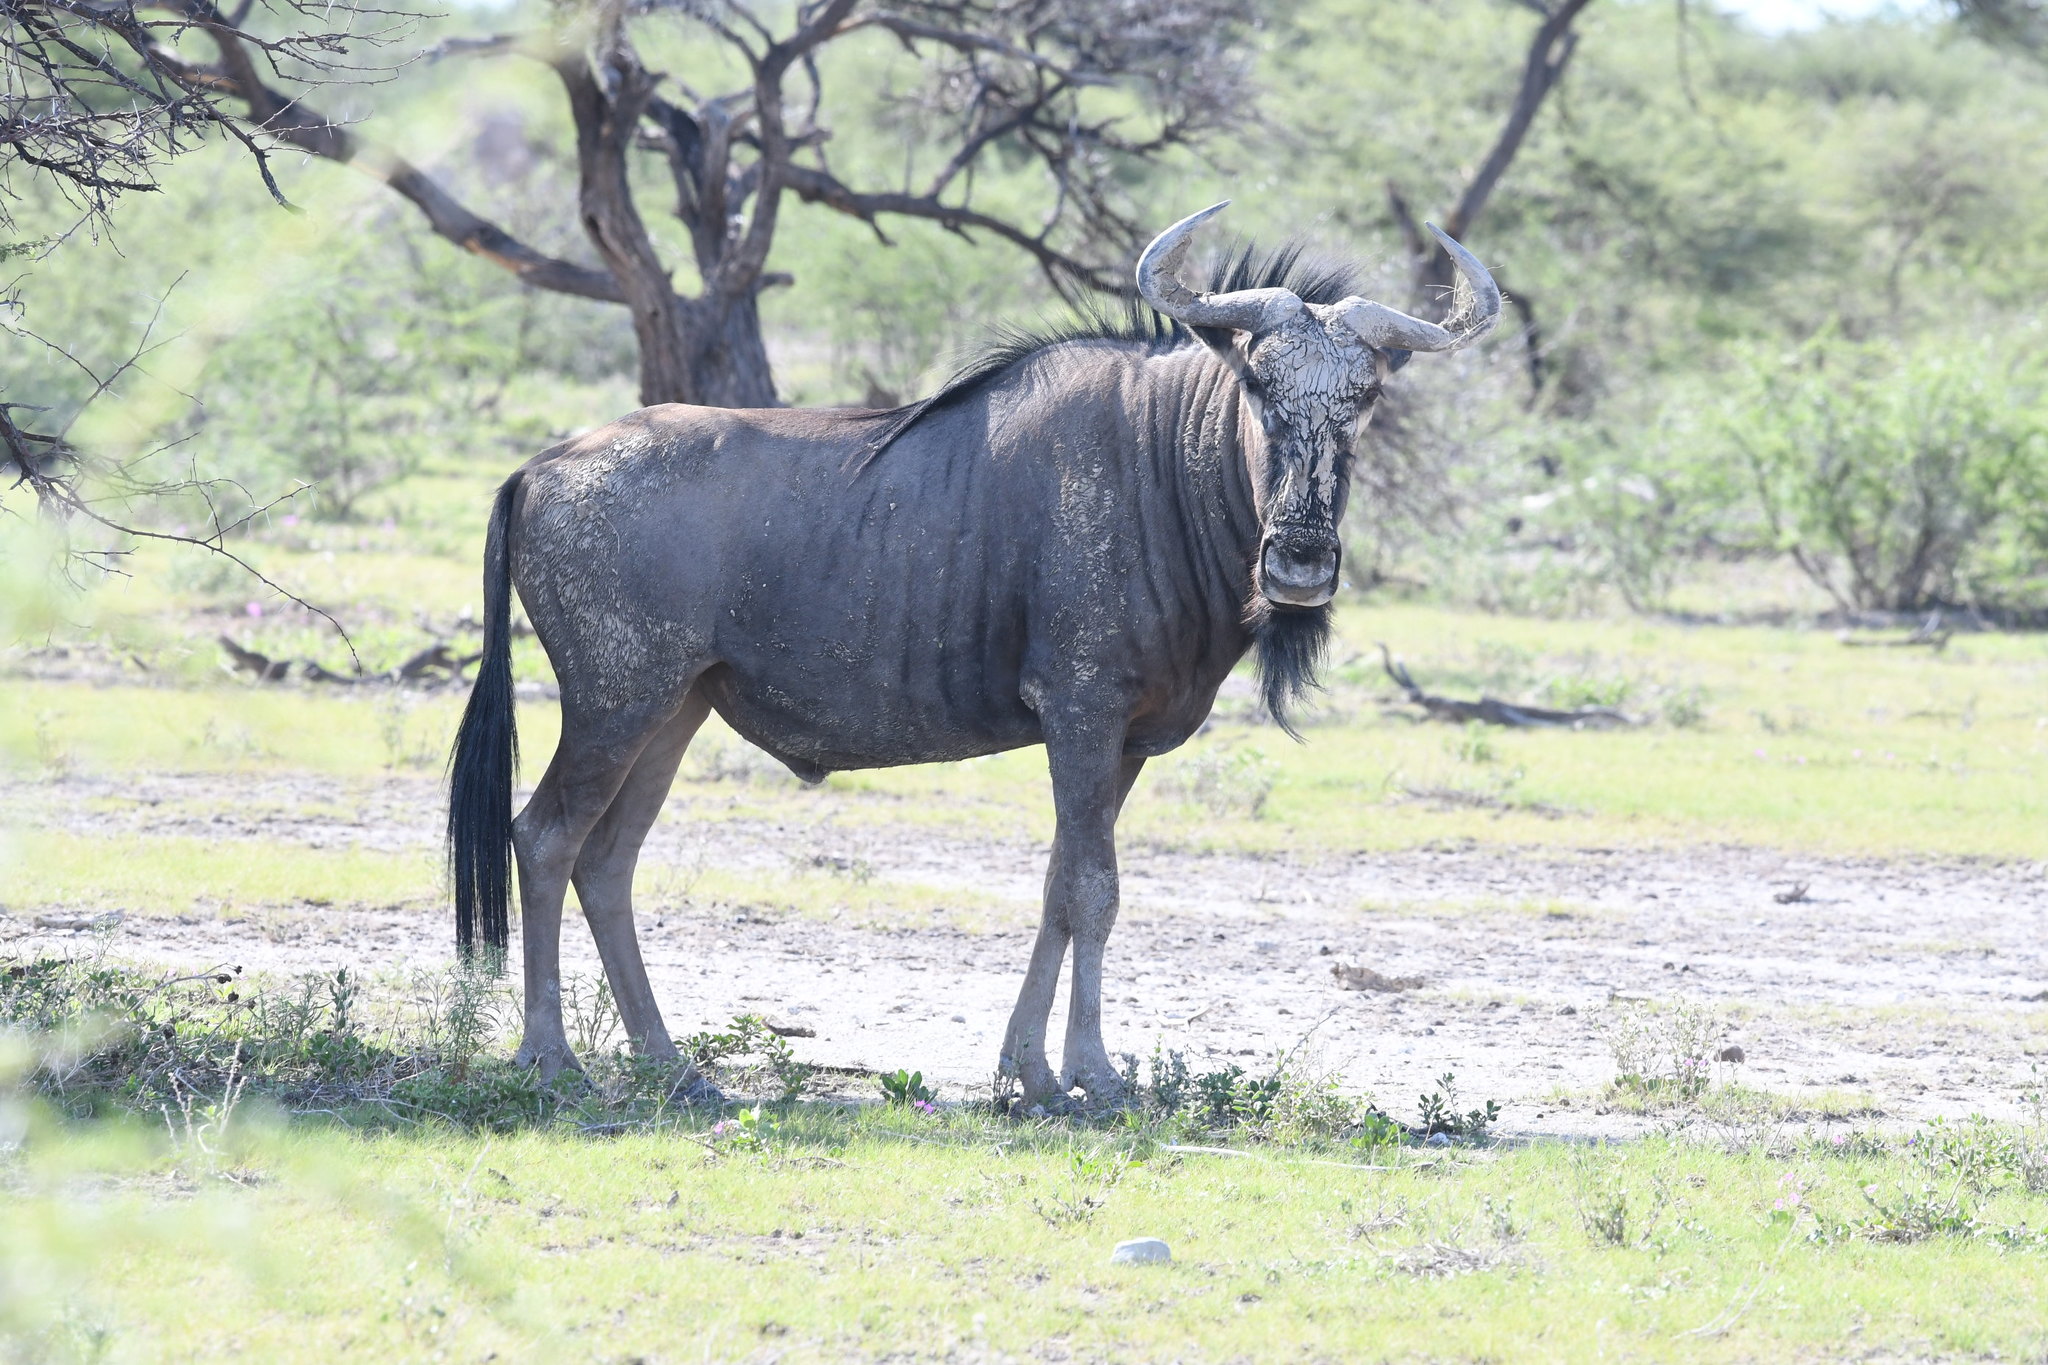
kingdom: Animalia
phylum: Chordata
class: Mammalia
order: Artiodactyla
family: Bovidae
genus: Connochaetes
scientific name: Connochaetes taurinus
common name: Blue wildebeest
